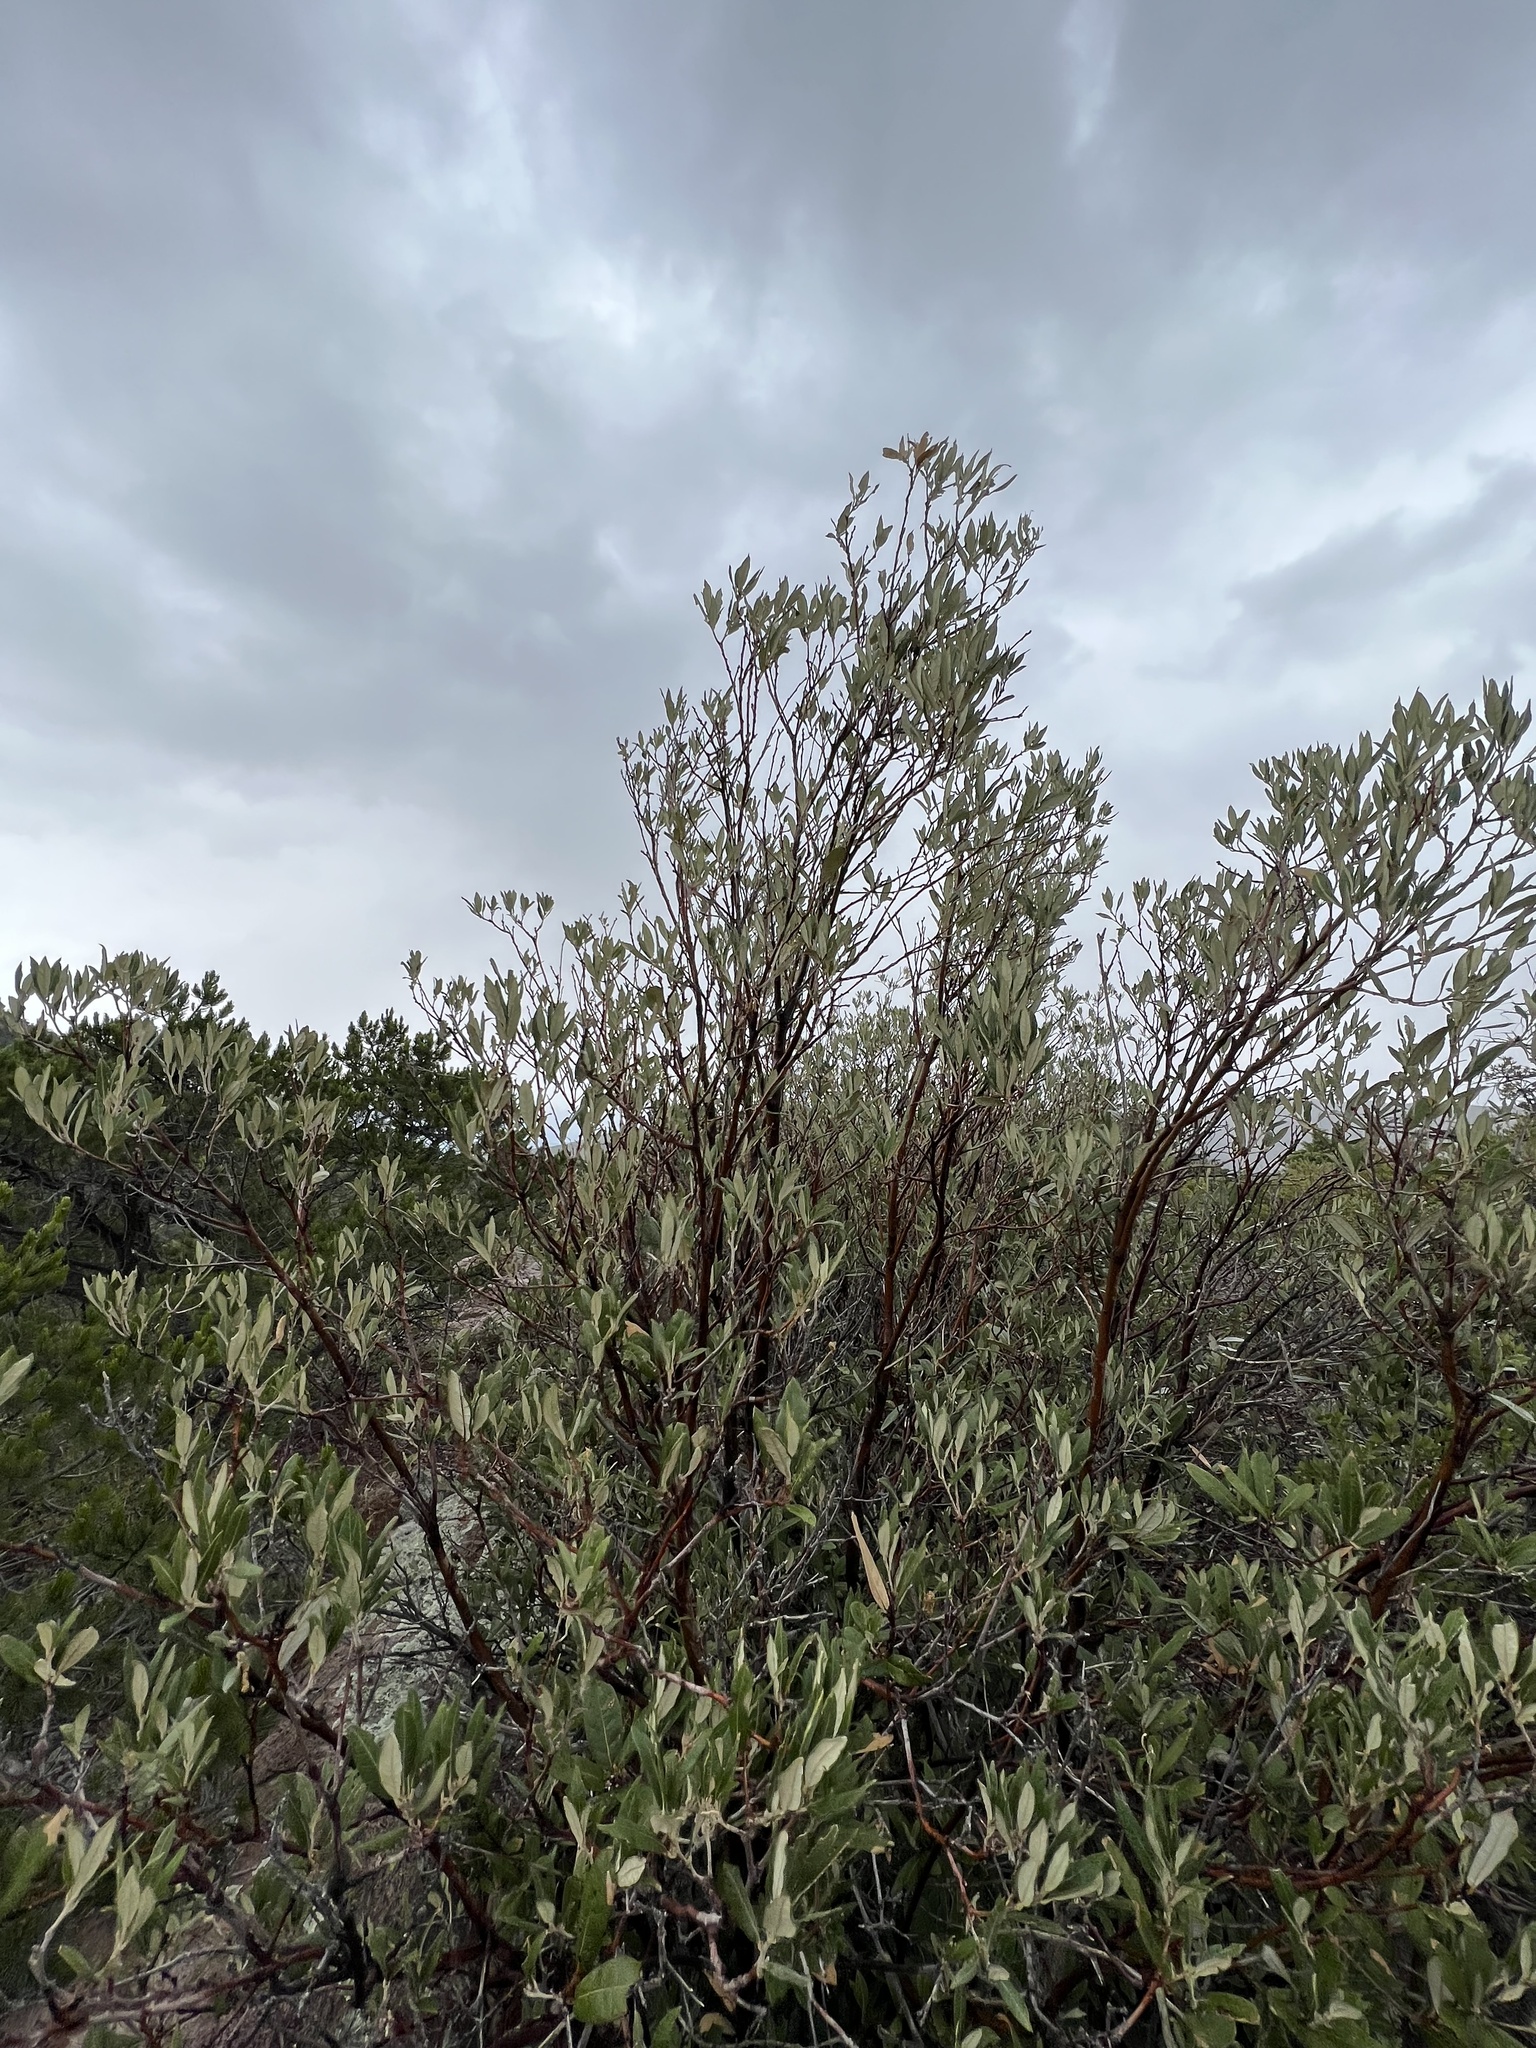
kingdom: Plantae
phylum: Tracheophyta
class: Magnoliopsida
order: Fagales
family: Fagaceae
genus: Quercus
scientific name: Quercus hypoleucoides
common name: Silverleaf oak
